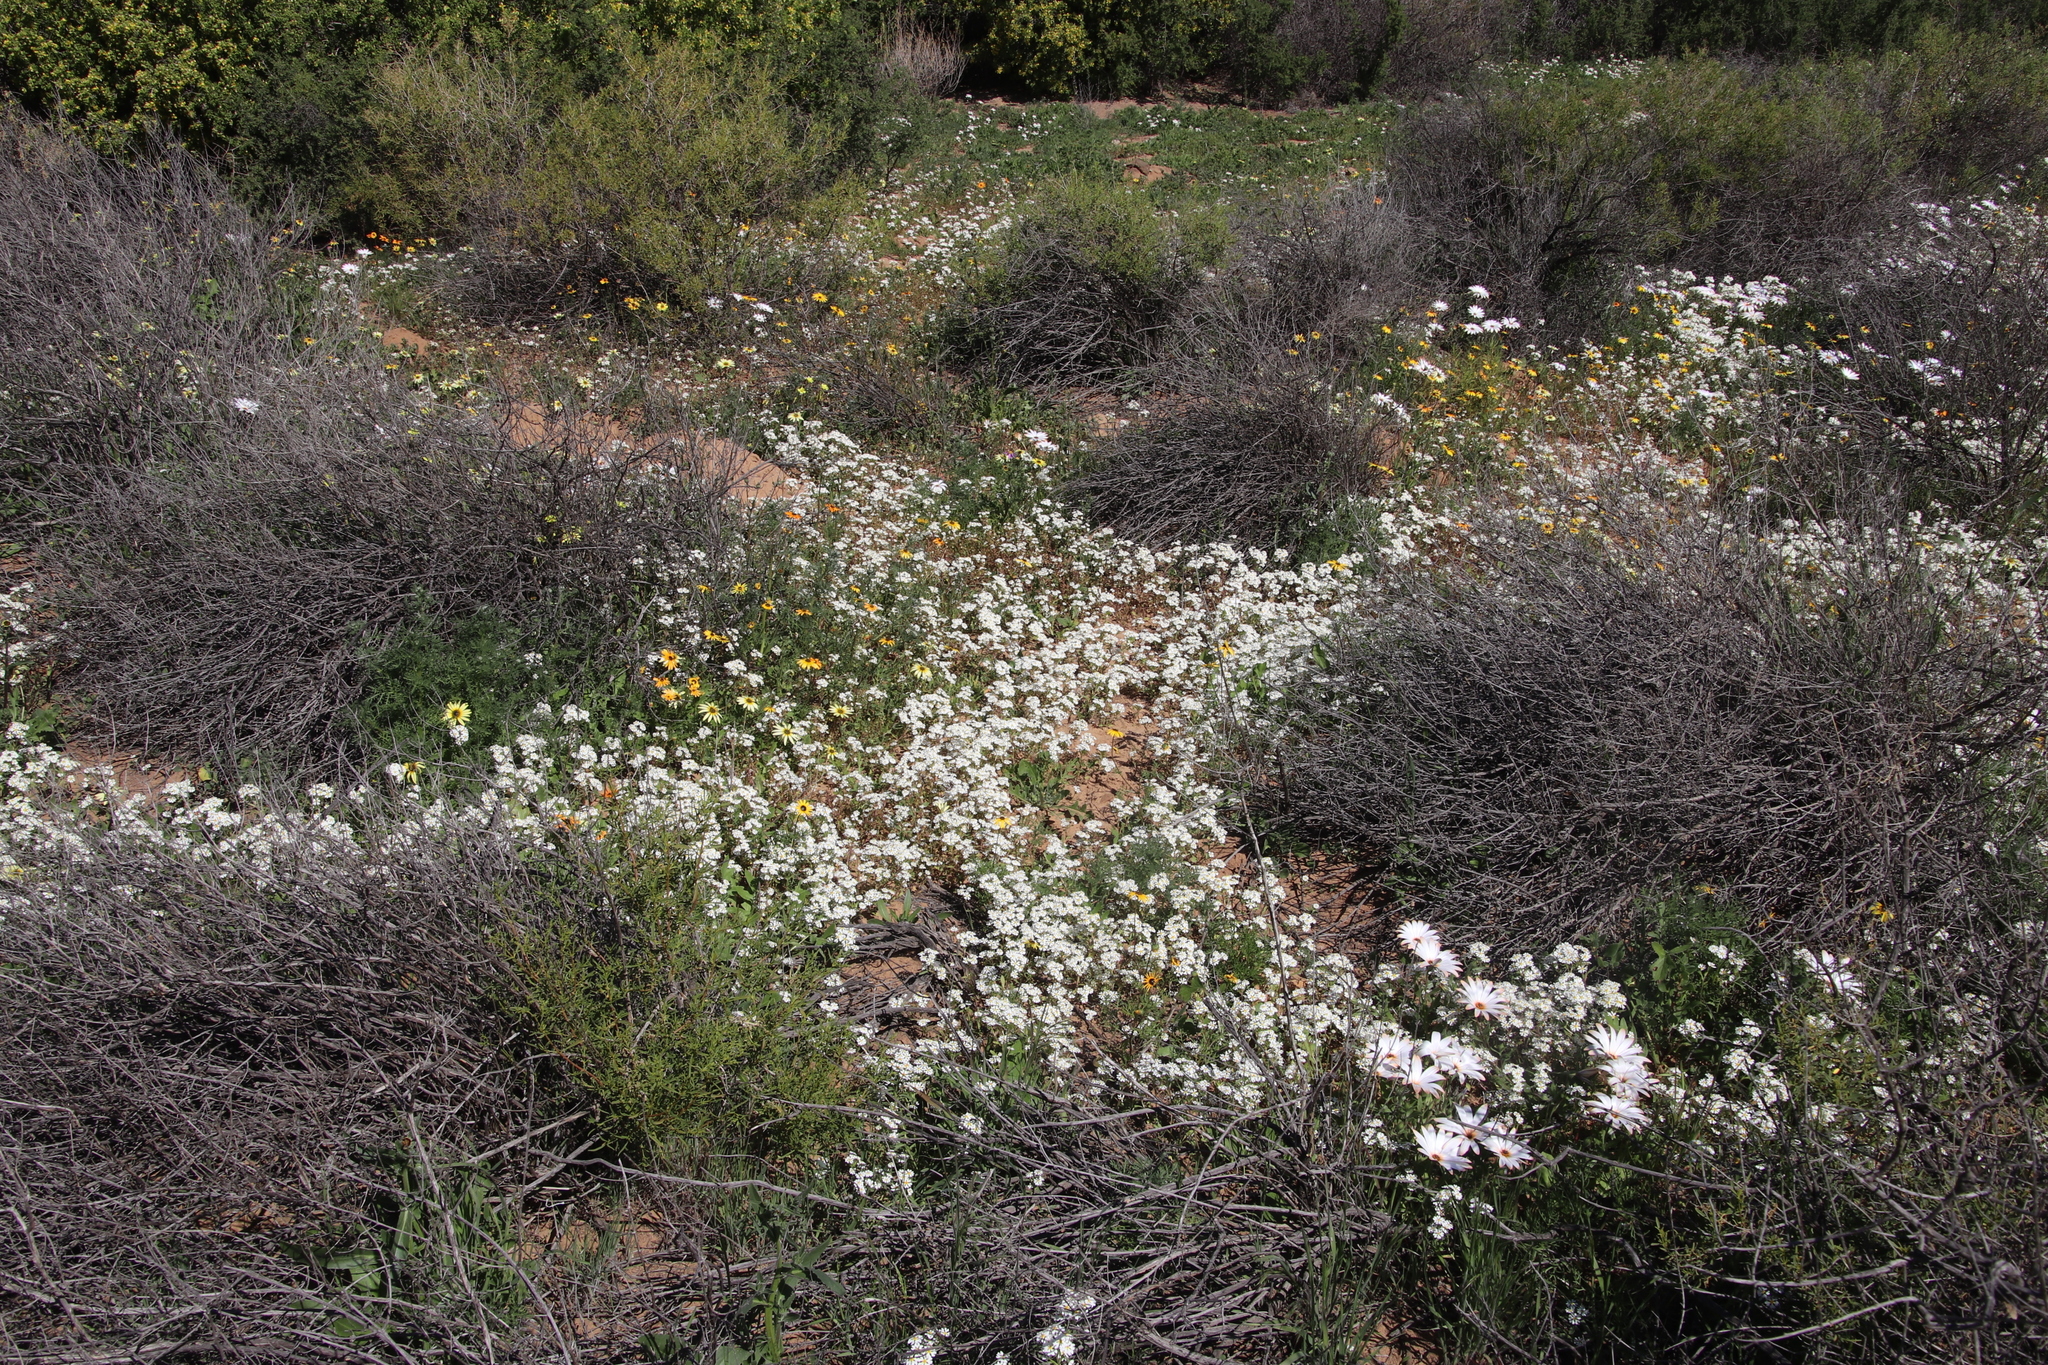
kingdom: Plantae
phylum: Tracheophyta
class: Magnoliopsida
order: Lamiales
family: Scrophulariaceae
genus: Zaluzianskya
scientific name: Zaluzianskya affinis
